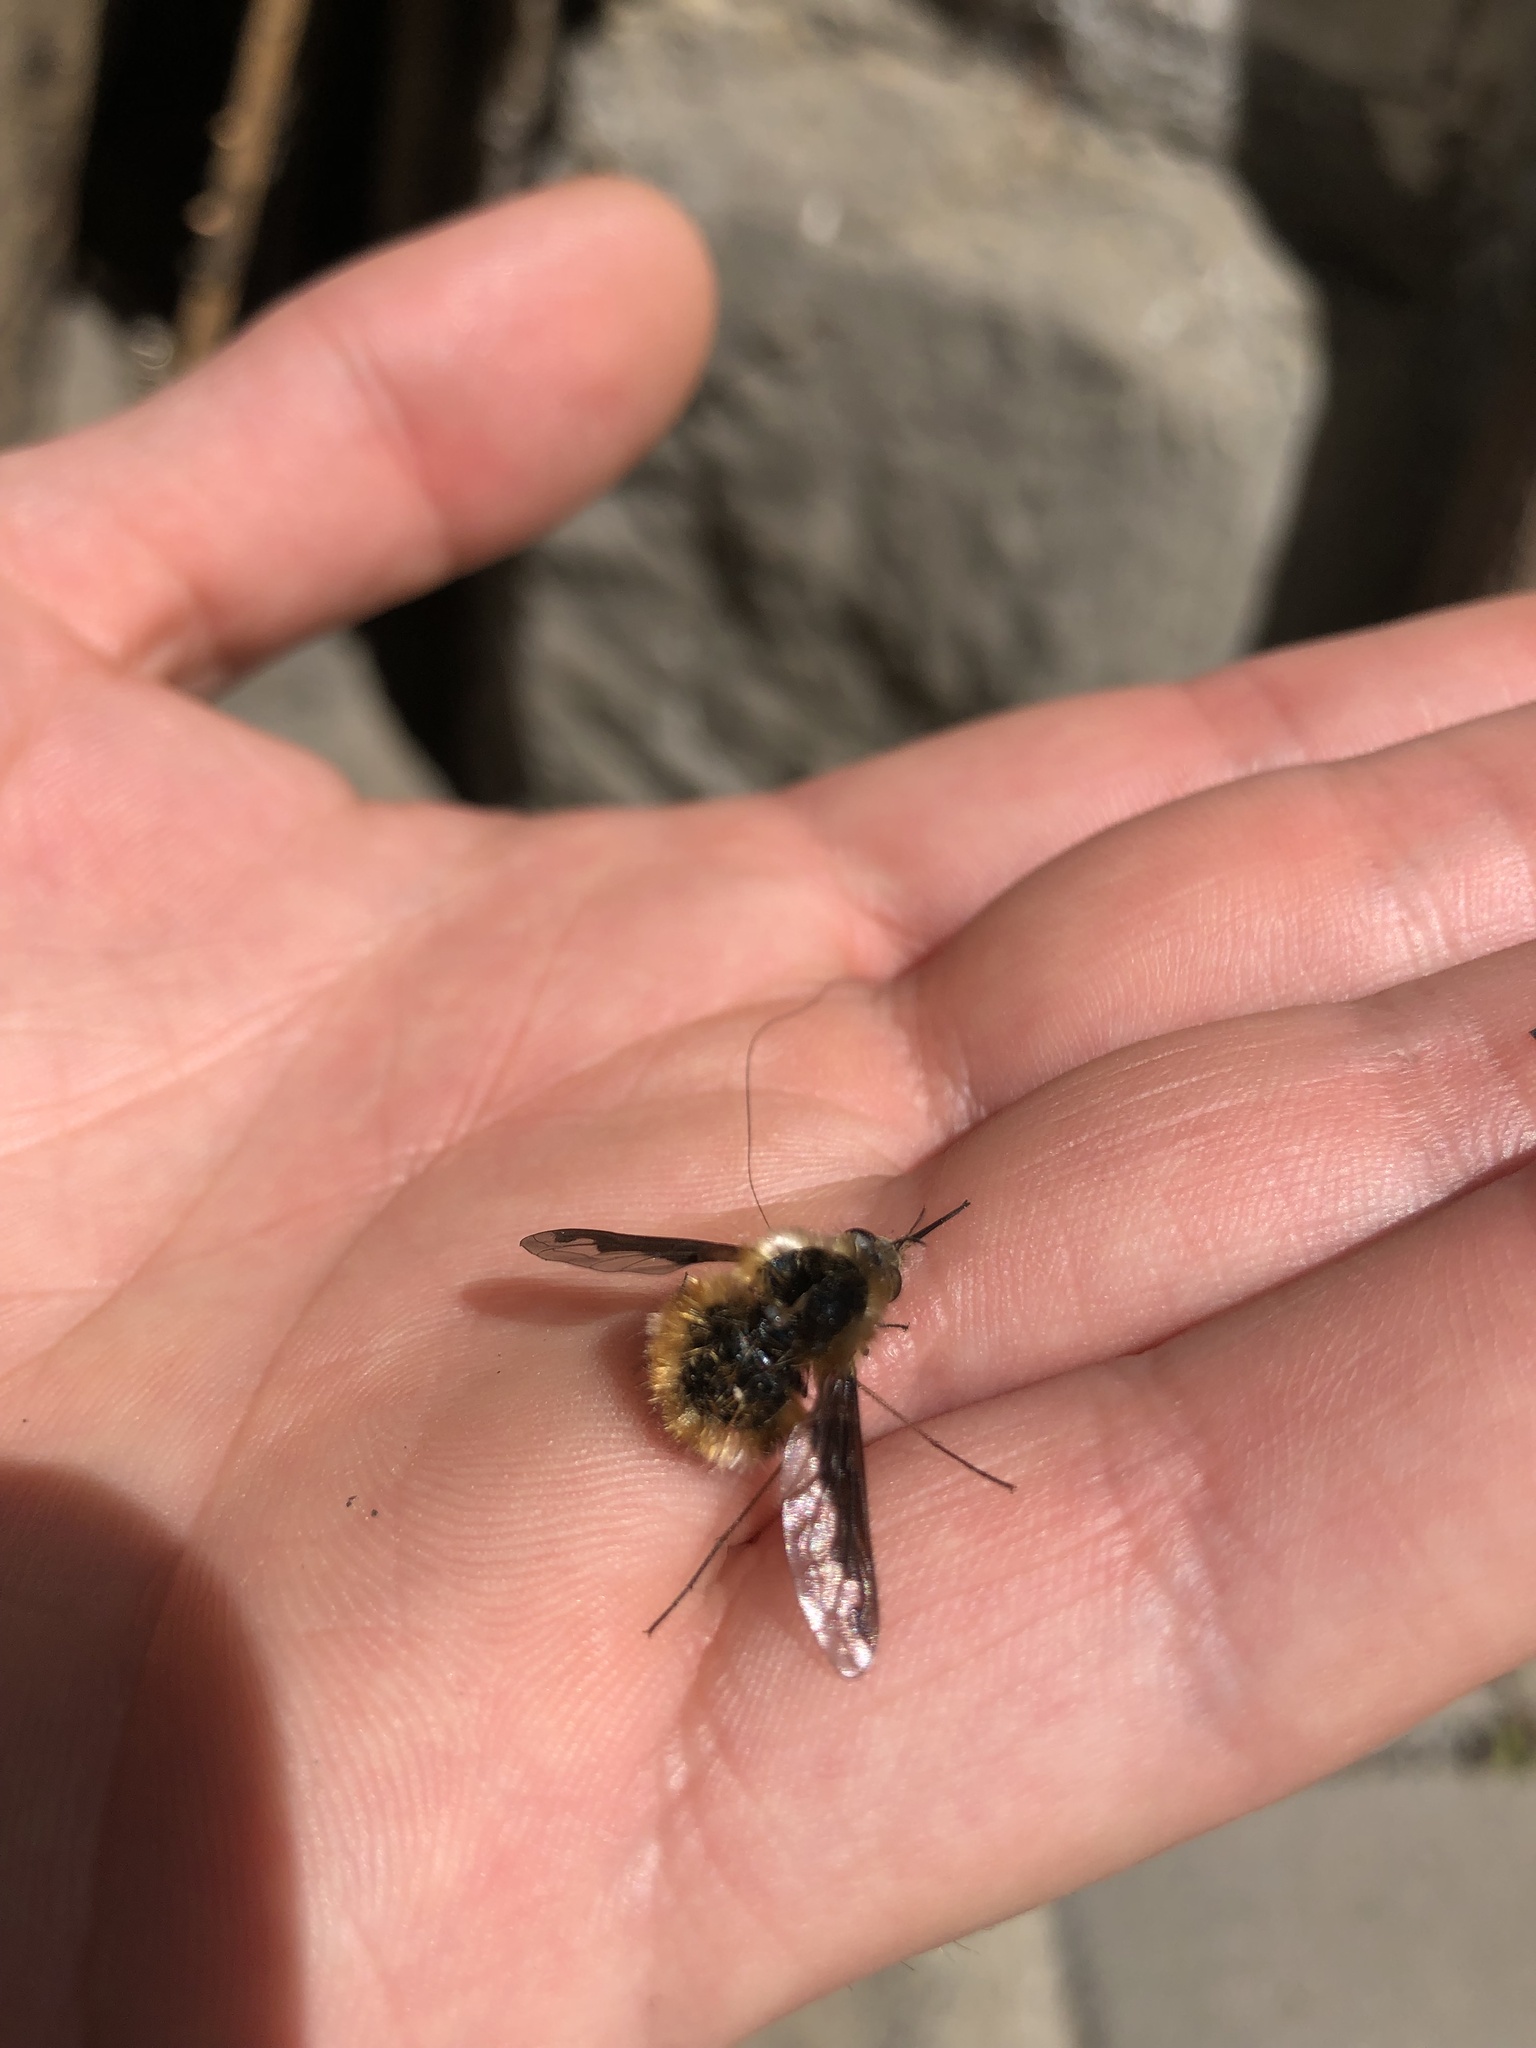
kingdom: Animalia
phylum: Arthropoda
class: Insecta
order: Diptera
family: Bombyliidae
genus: Bombylius
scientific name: Bombylius major
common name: Bee fly
